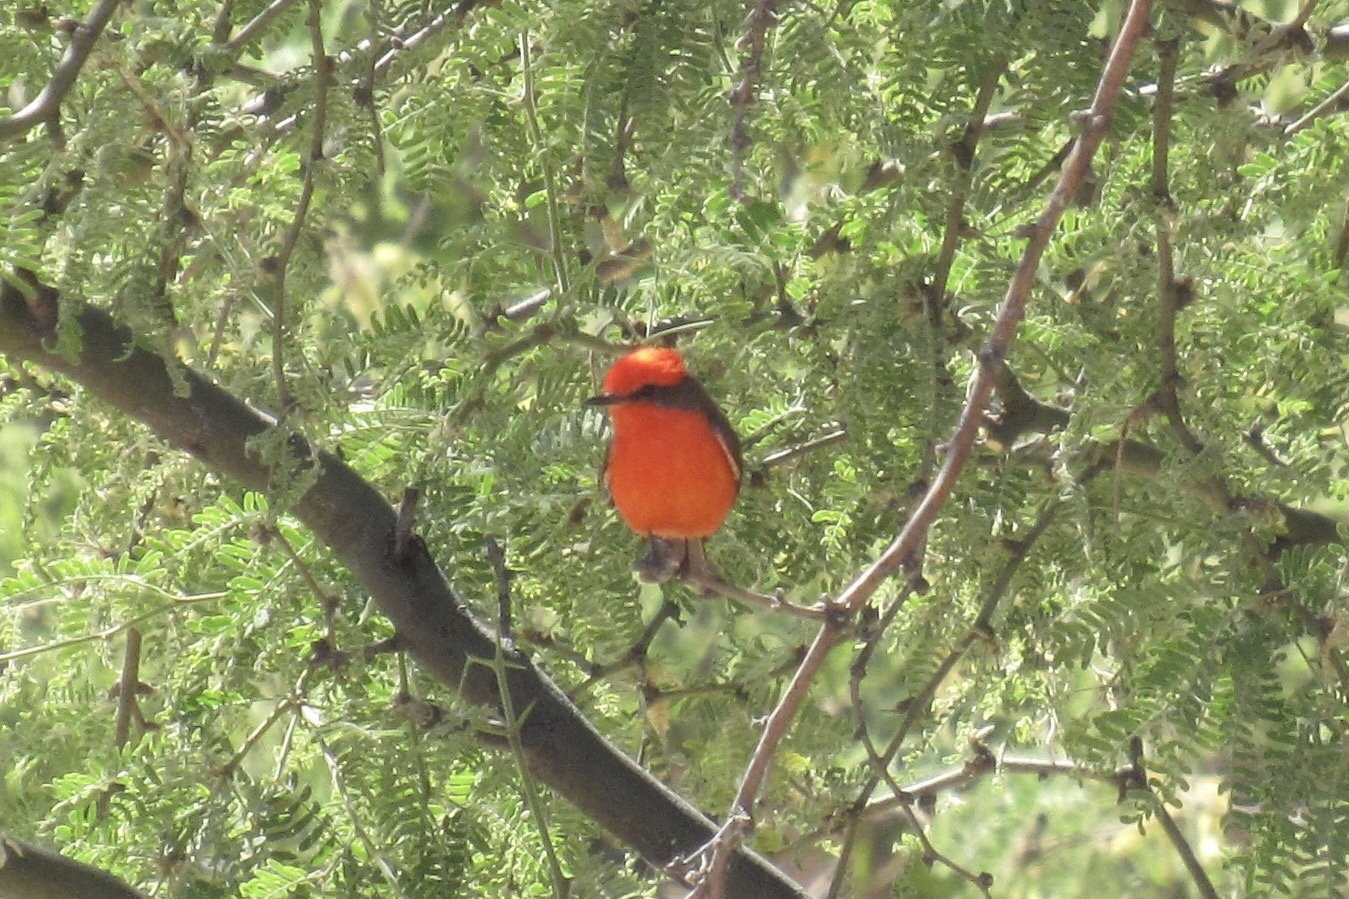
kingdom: Animalia
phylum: Chordata
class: Aves
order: Passeriformes
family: Tyrannidae
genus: Pyrocephalus
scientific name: Pyrocephalus rubinus
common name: Vermilion flycatcher
